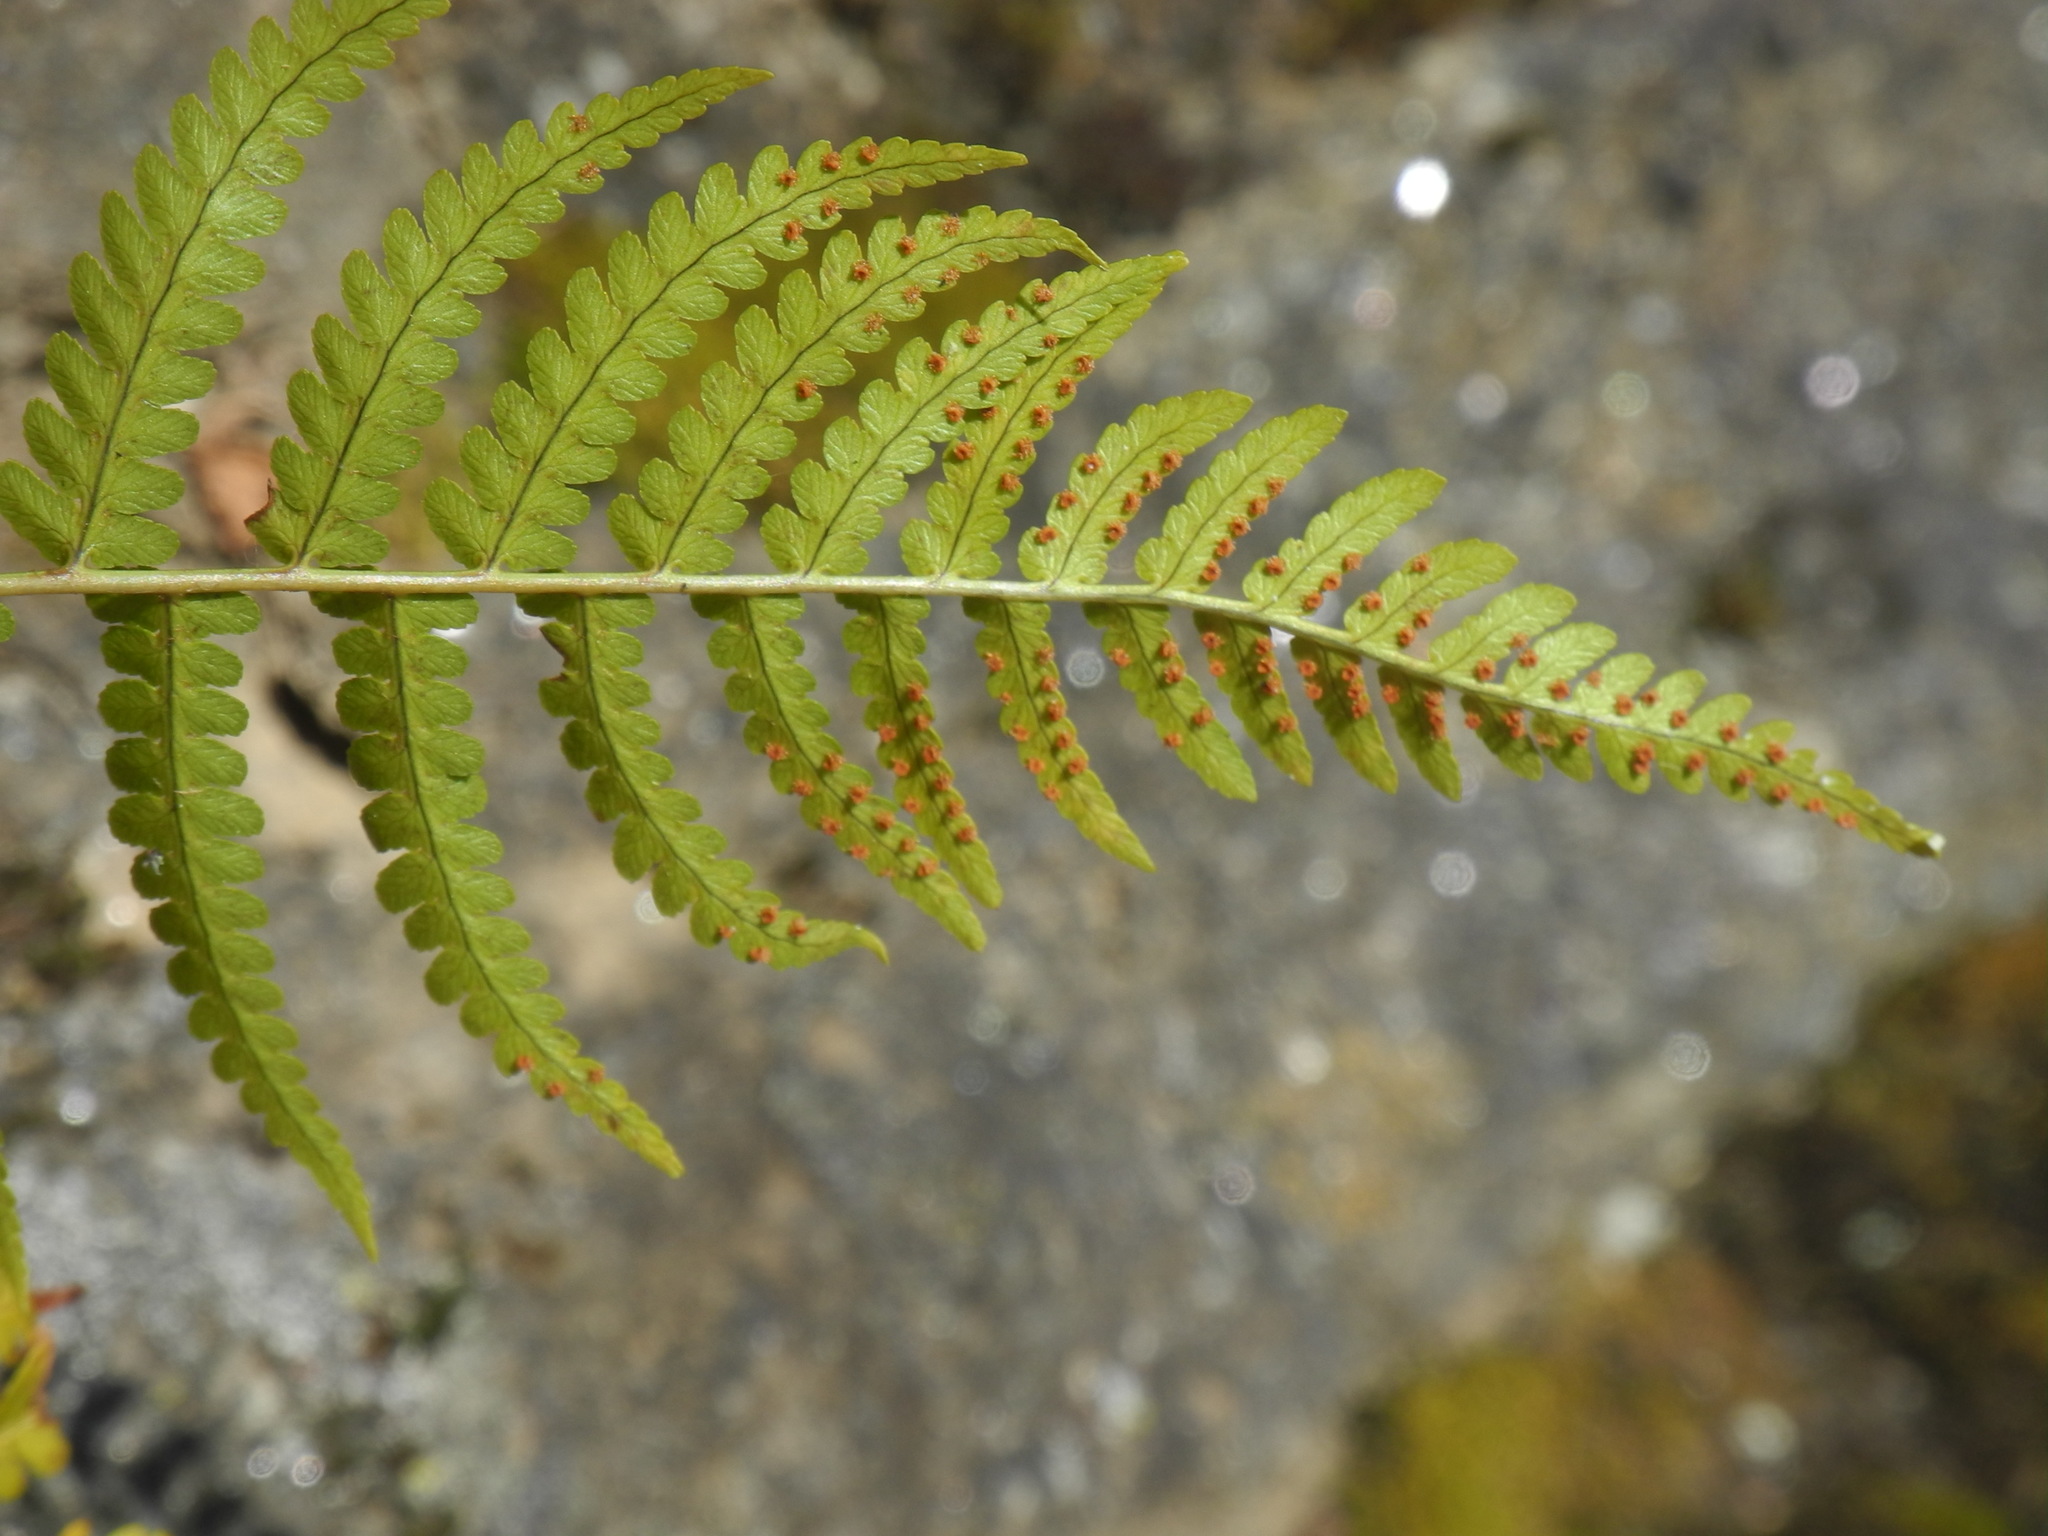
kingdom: Plantae
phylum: Tracheophyta
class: Polypodiopsida
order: Polypodiales
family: Dryopteridaceae
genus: Dryopteris
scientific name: Dryopteris marginalis
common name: Marginal wood fern
